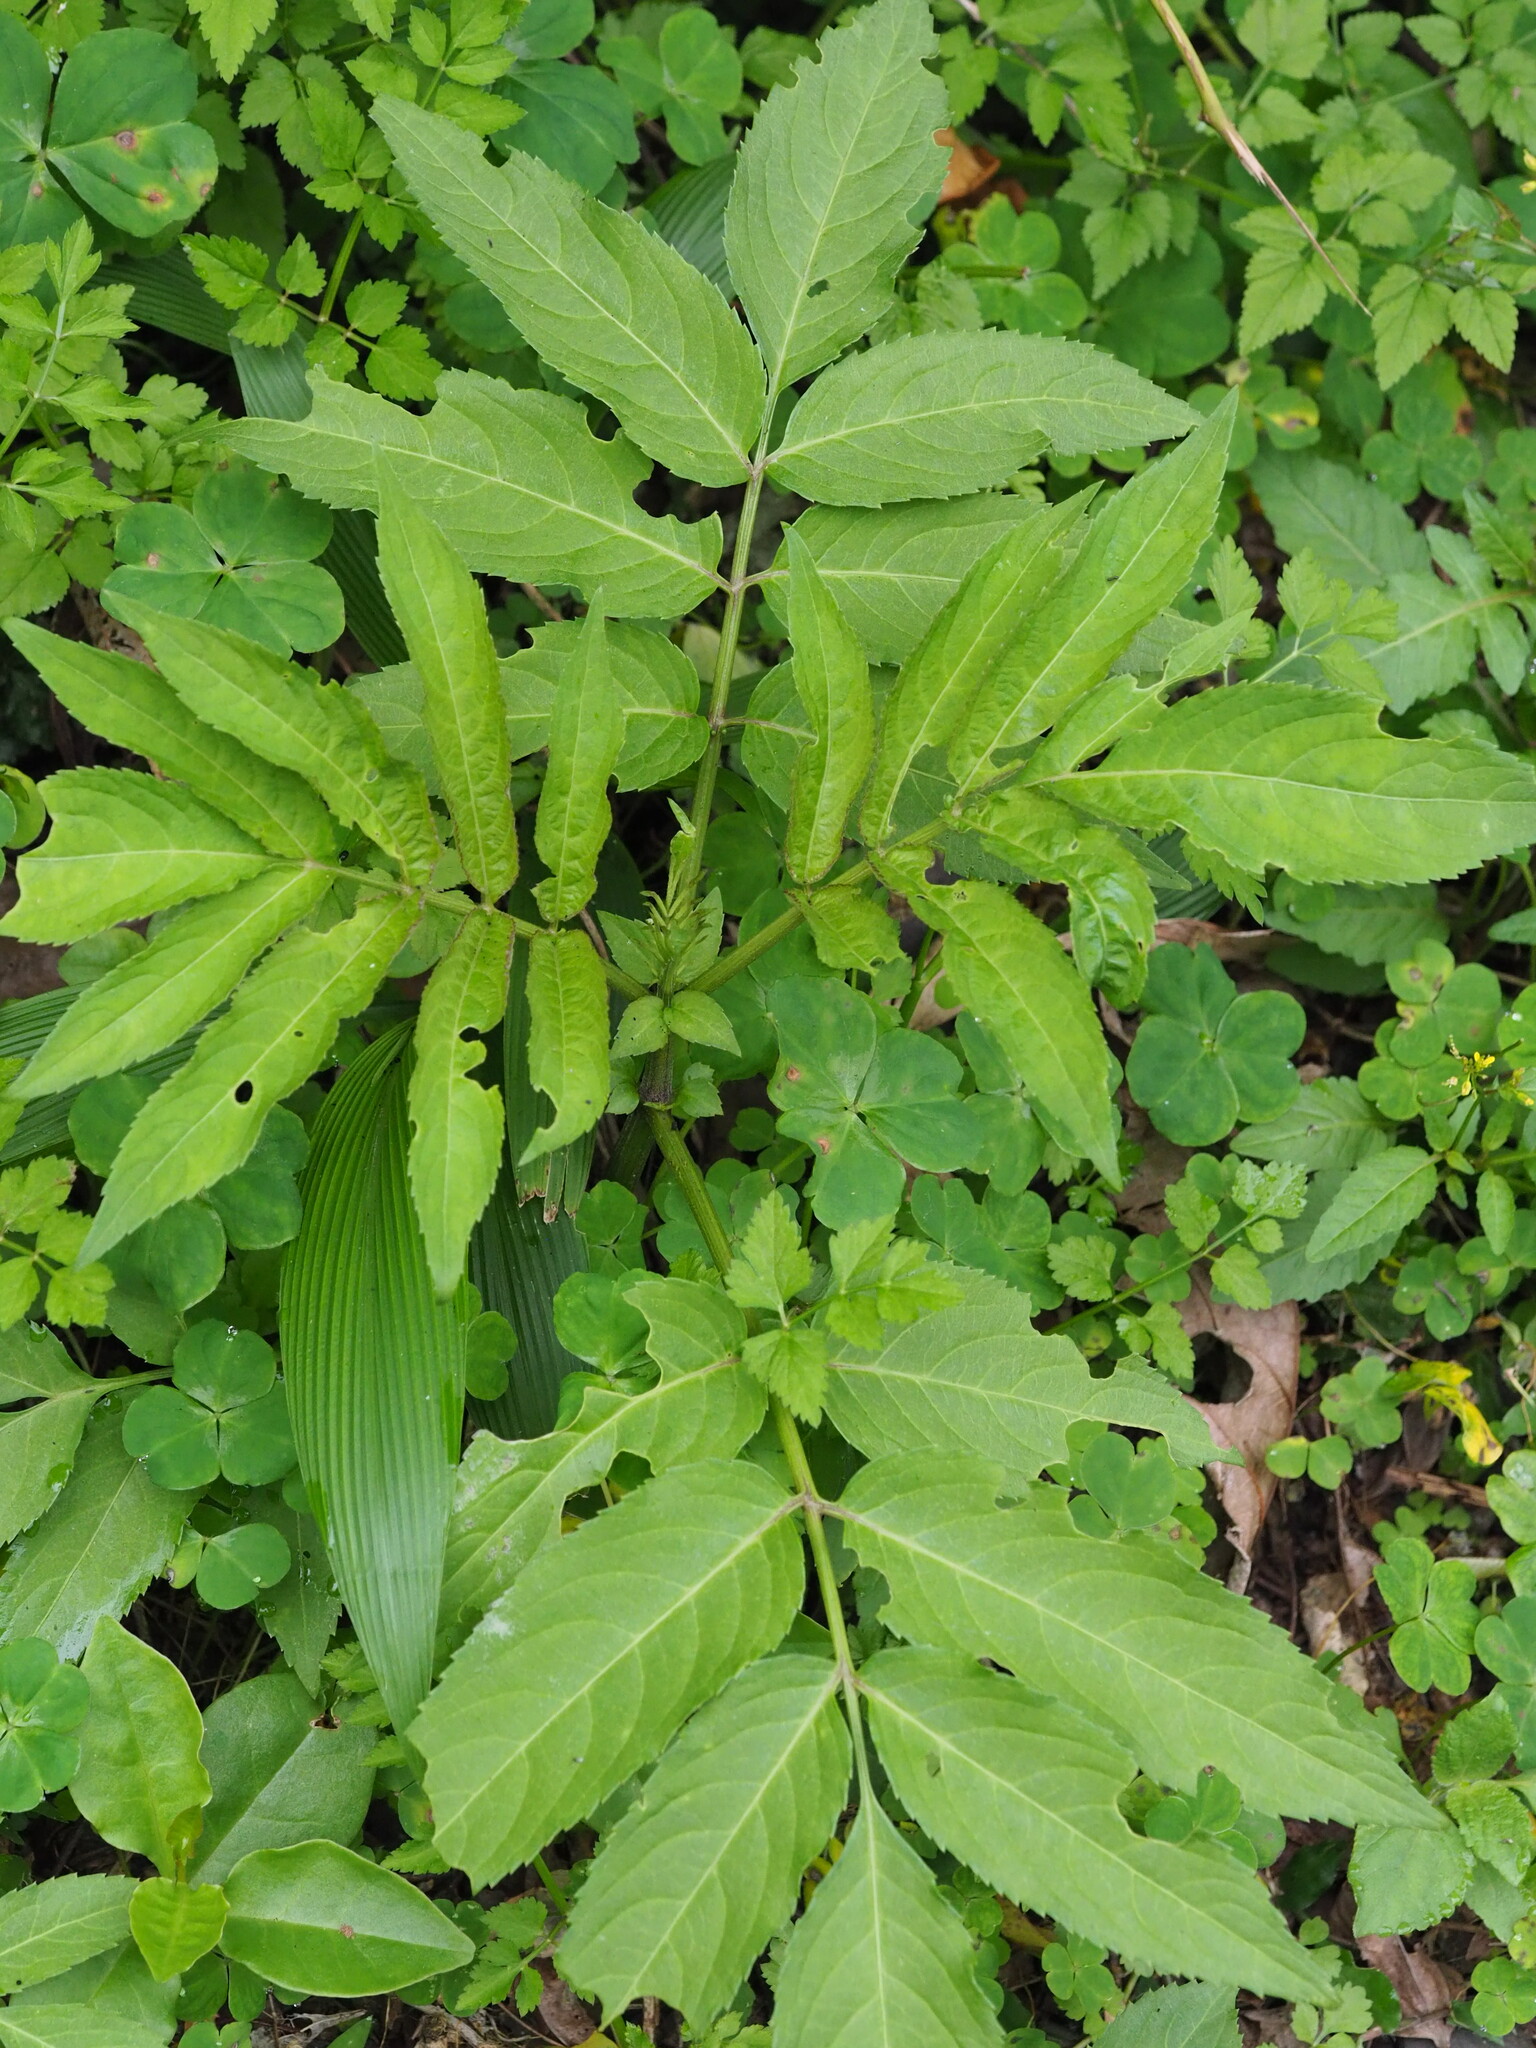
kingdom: Plantae
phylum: Tracheophyta
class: Magnoliopsida
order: Dipsacales
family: Viburnaceae
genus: Sambucus
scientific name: Sambucus javanica
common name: Chinese elder
